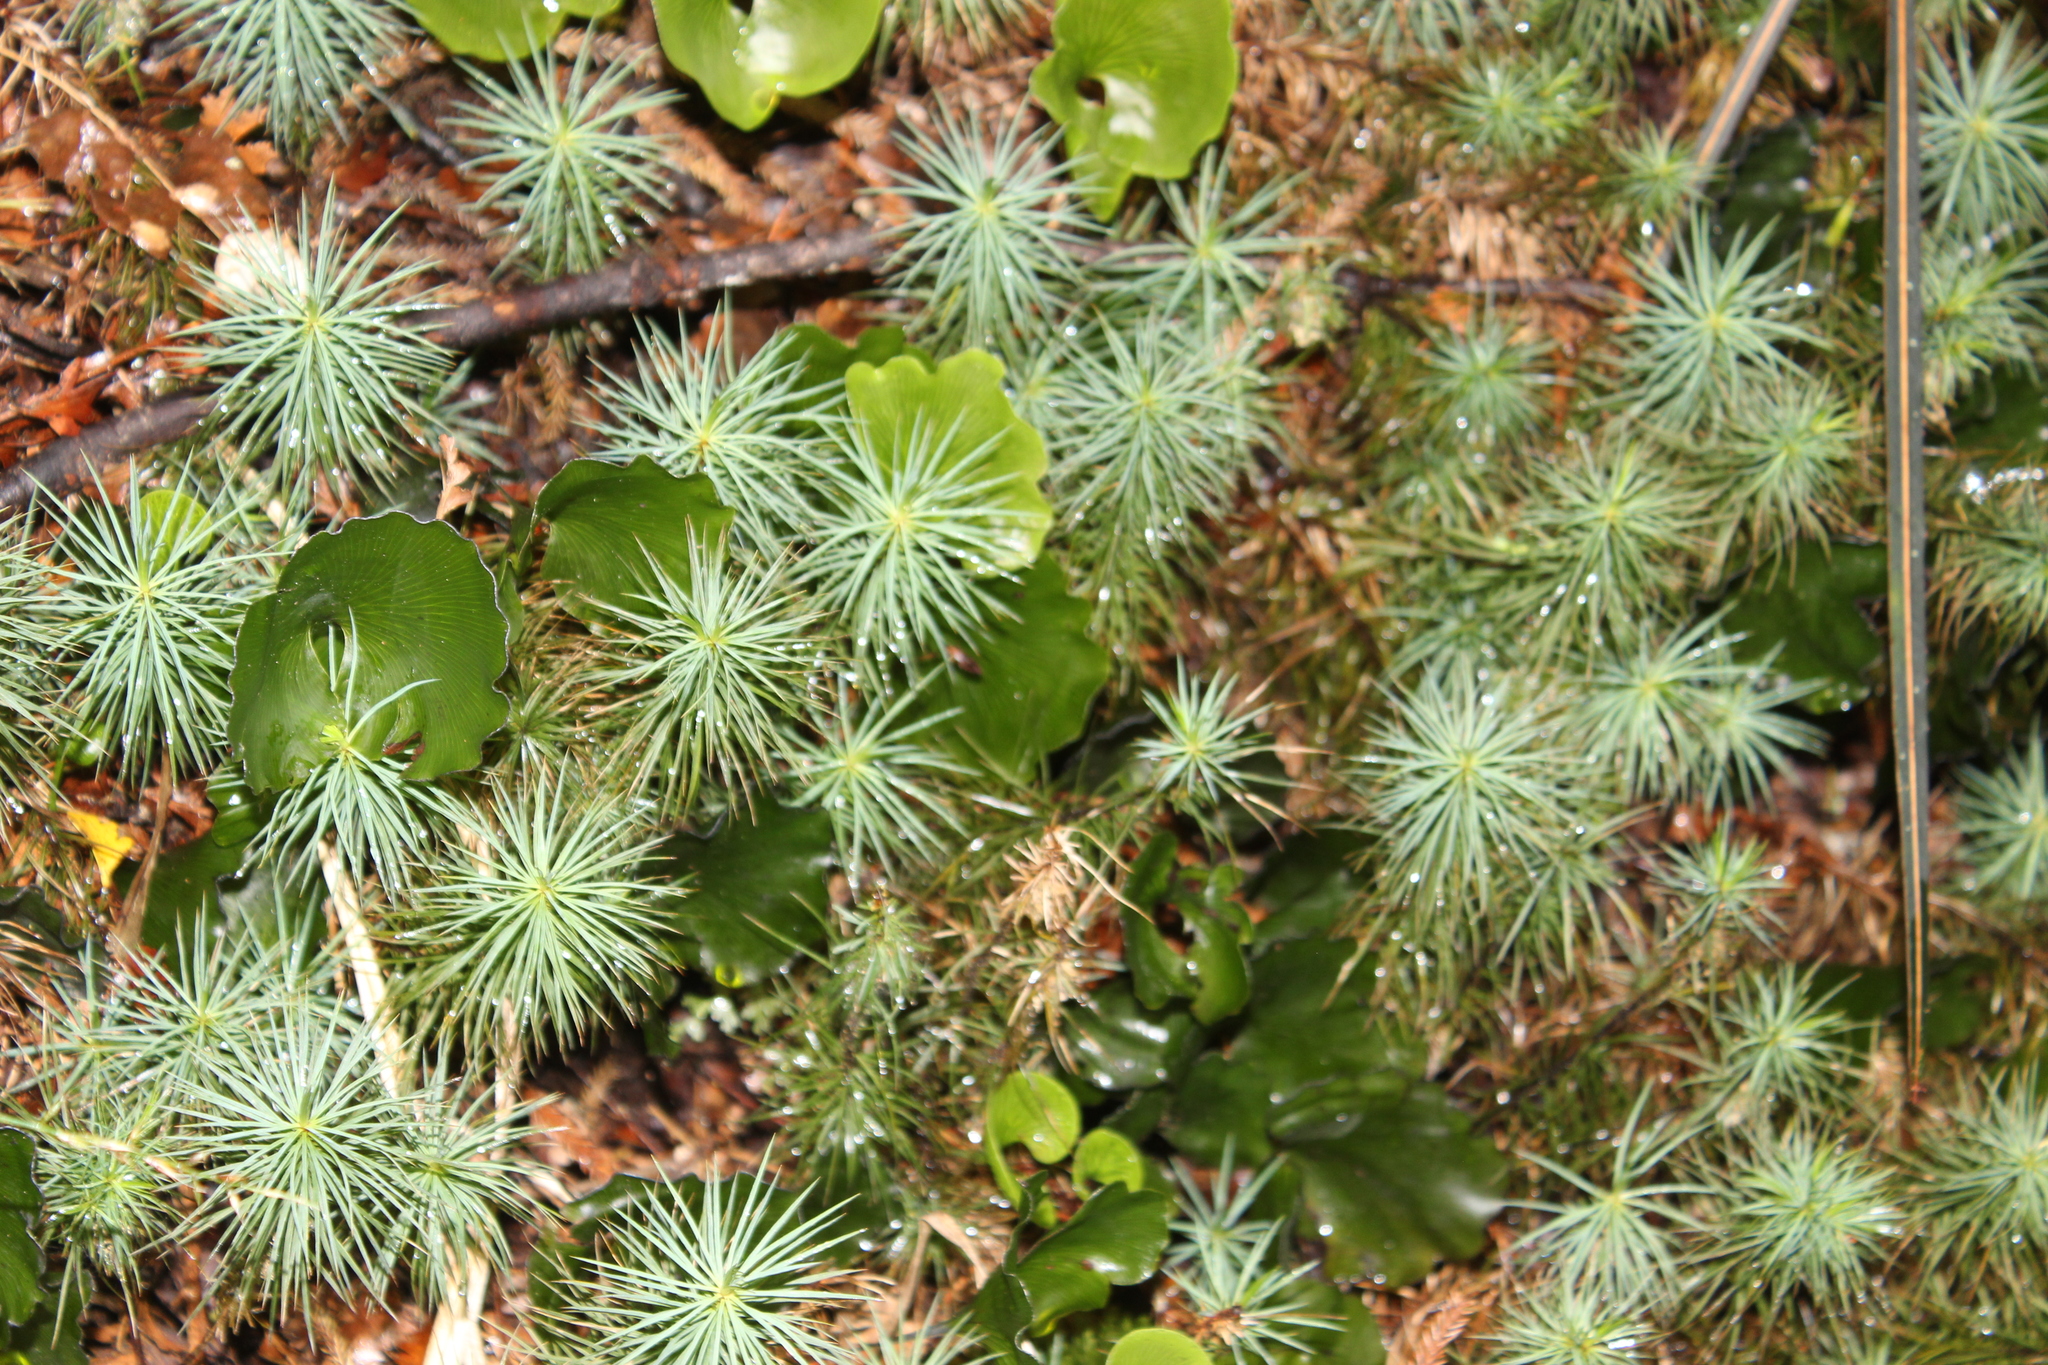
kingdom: Plantae
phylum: Bryophyta
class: Polytrichopsida
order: Polytrichales
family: Polytrichaceae
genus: Dawsonia
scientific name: Dawsonia superba
